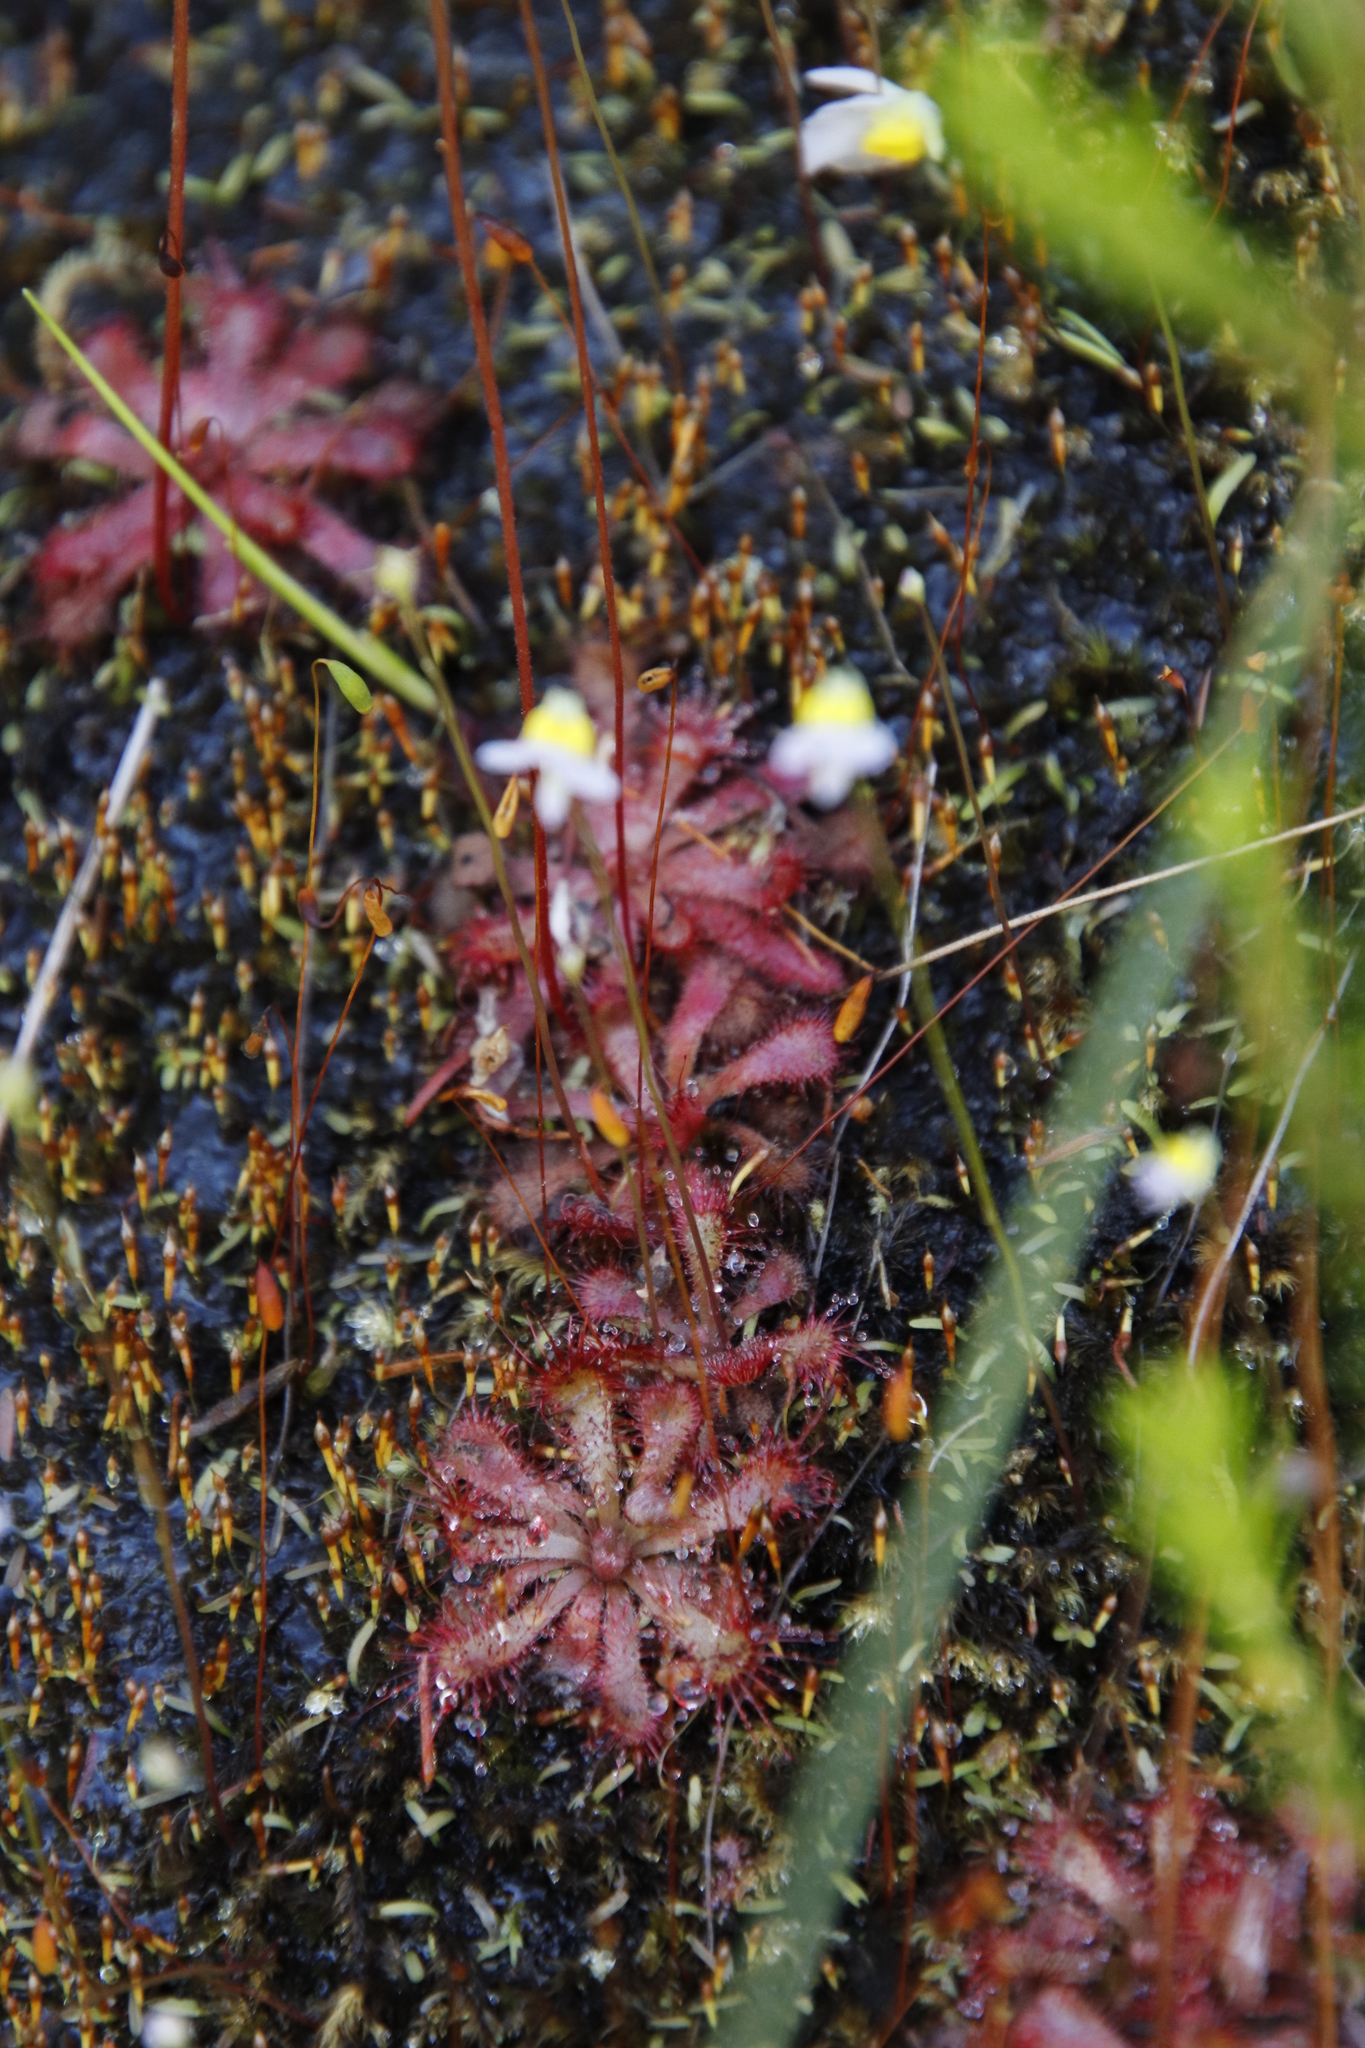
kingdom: Plantae
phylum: Tracheophyta
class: Magnoliopsida
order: Caryophyllales
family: Droseraceae
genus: Drosera
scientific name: Drosera aliciae
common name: Alice sundew
